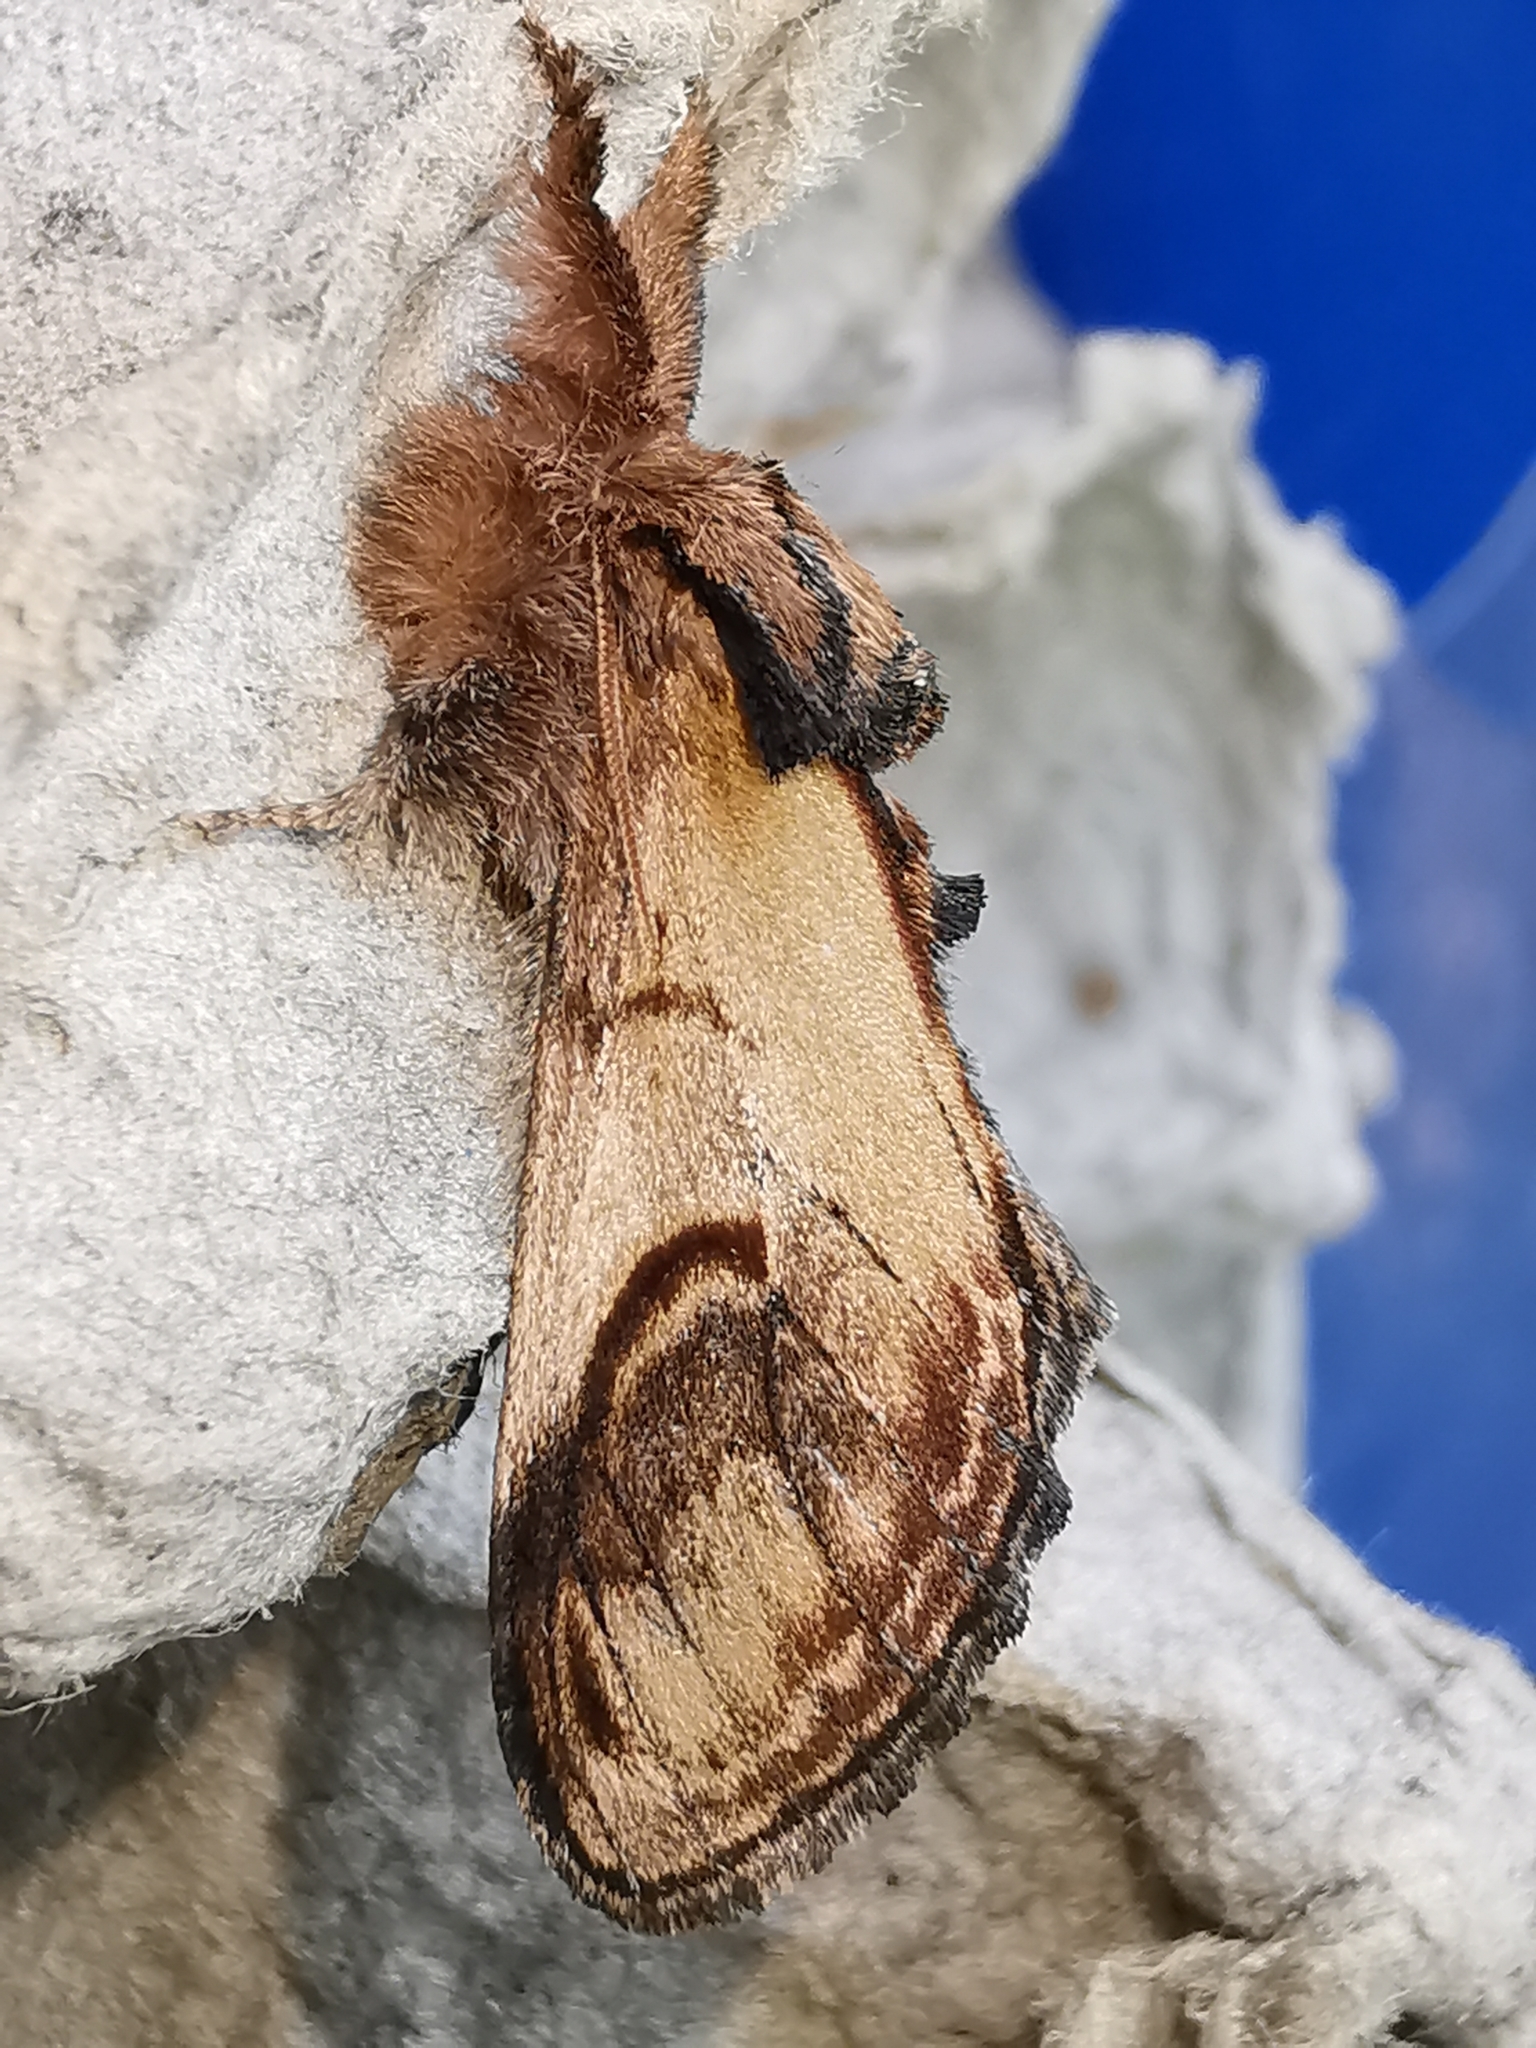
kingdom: Animalia
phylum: Arthropoda
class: Insecta
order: Lepidoptera
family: Notodontidae
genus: Notodonta
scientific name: Notodonta ziczac
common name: Pebble prominent
